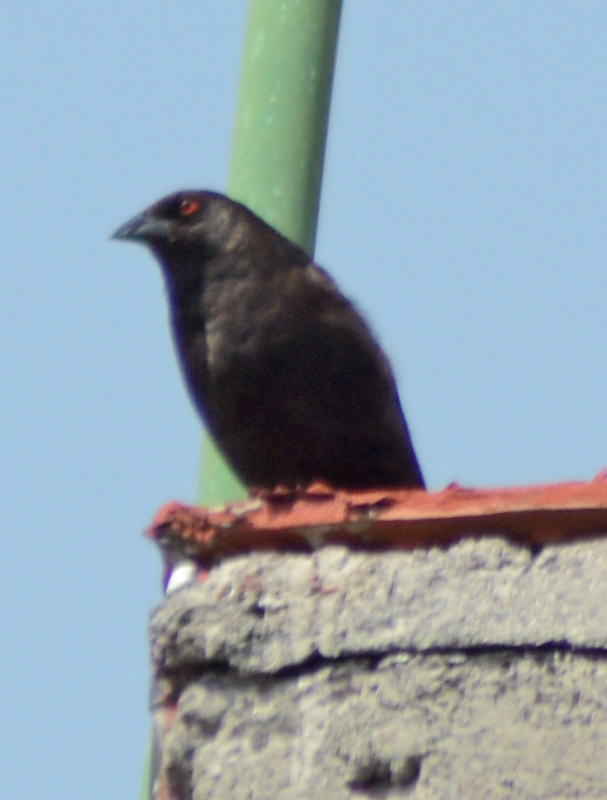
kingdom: Animalia
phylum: Chordata
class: Aves
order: Passeriformes
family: Icteridae
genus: Molothrus
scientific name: Molothrus aeneus
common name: Bronzed cowbird
